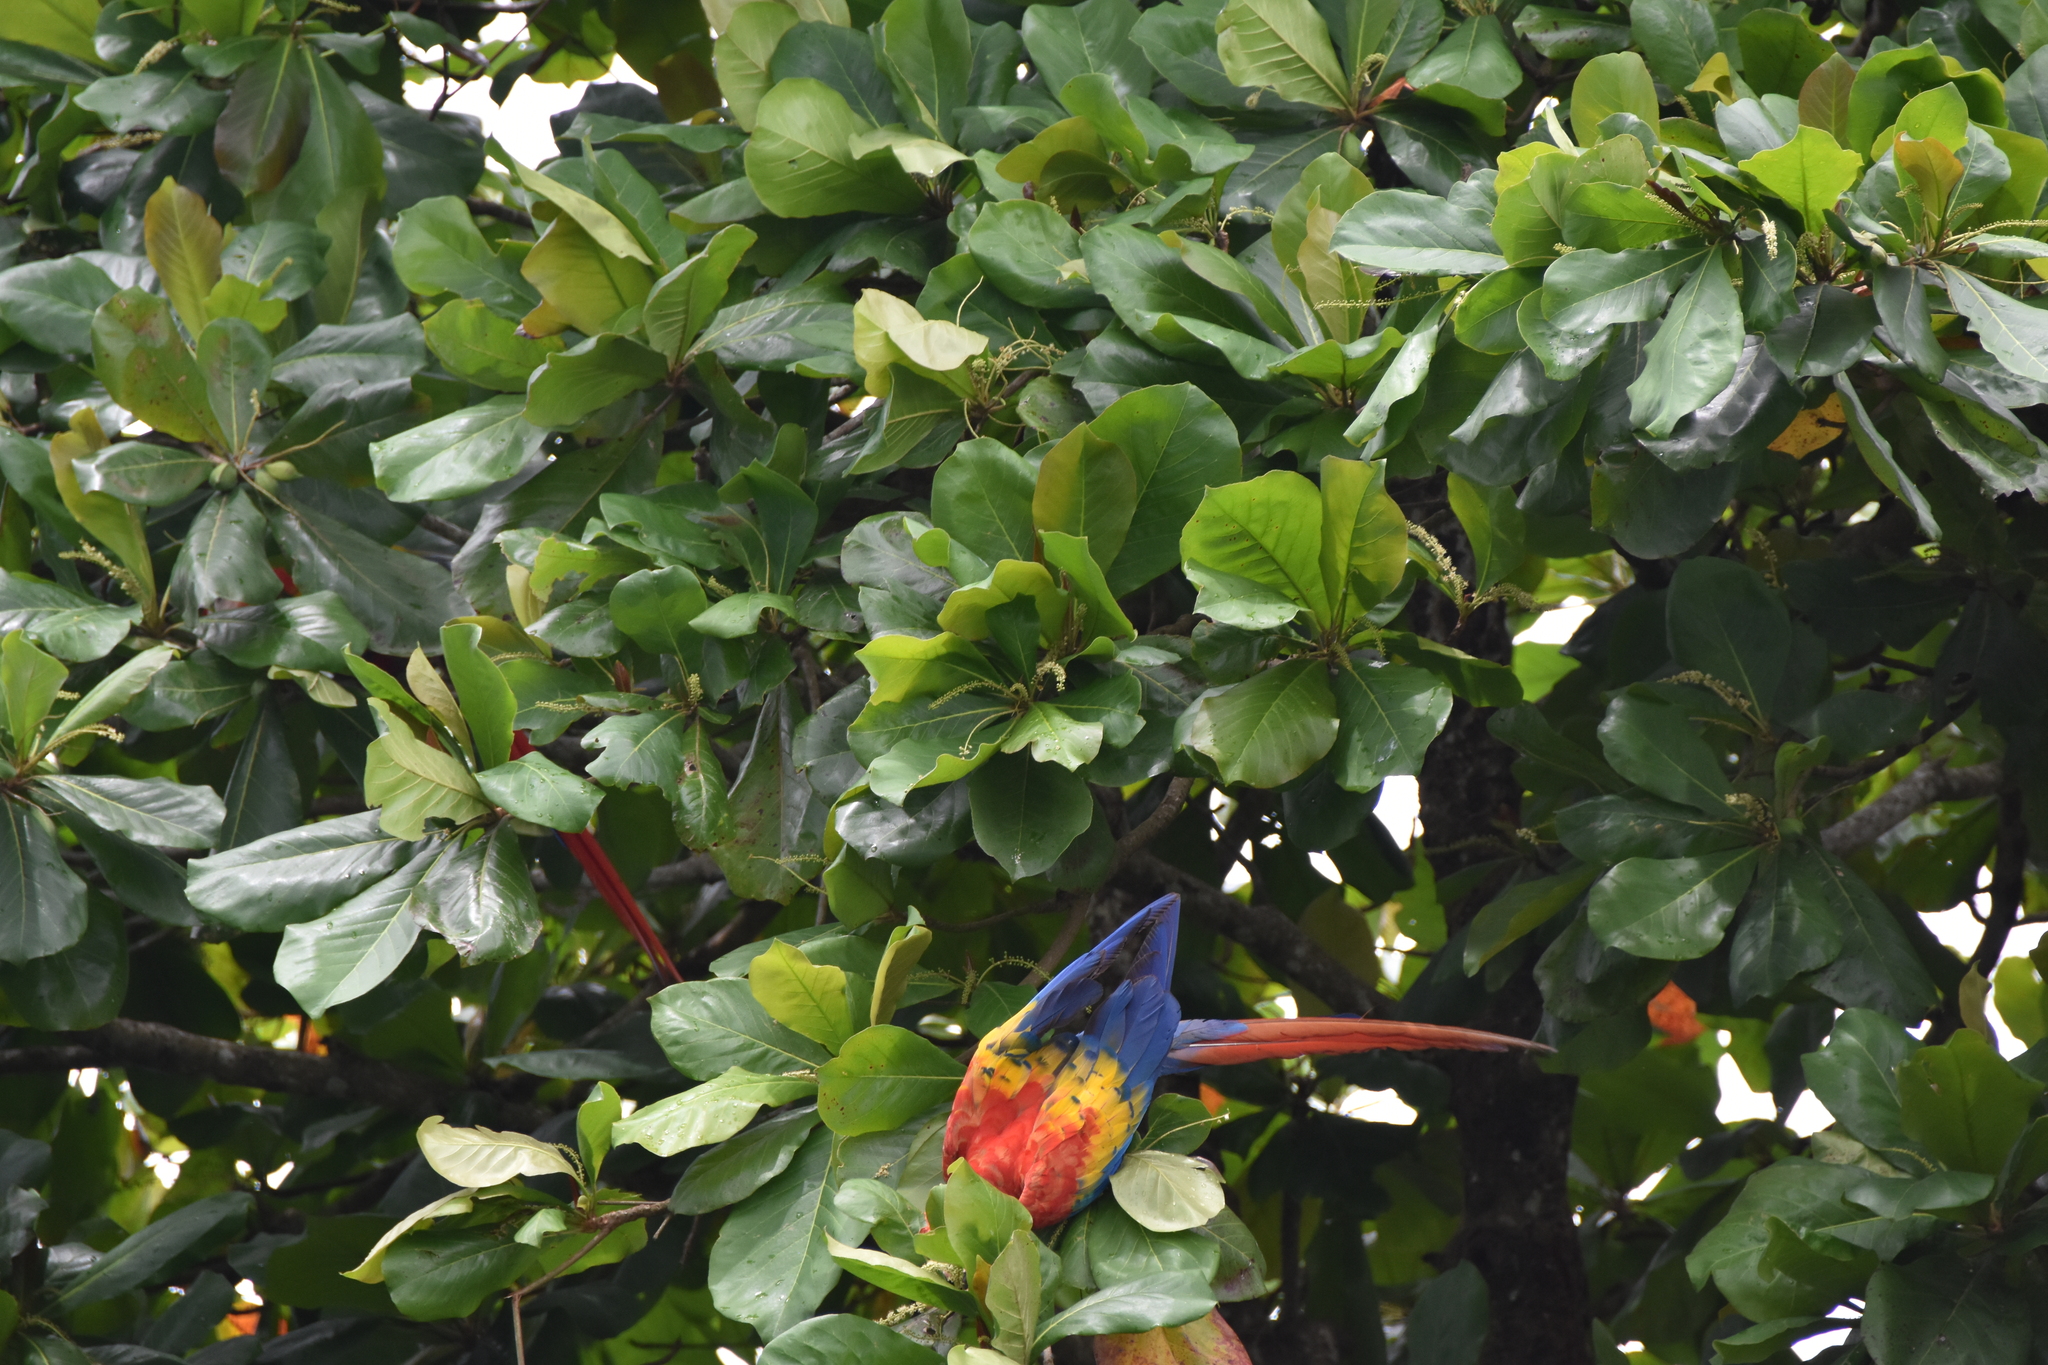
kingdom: Plantae
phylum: Tracheophyta
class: Magnoliopsida
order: Myrtales
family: Combretaceae
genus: Terminalia
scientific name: Terminalia catappa
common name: Tropical almond
